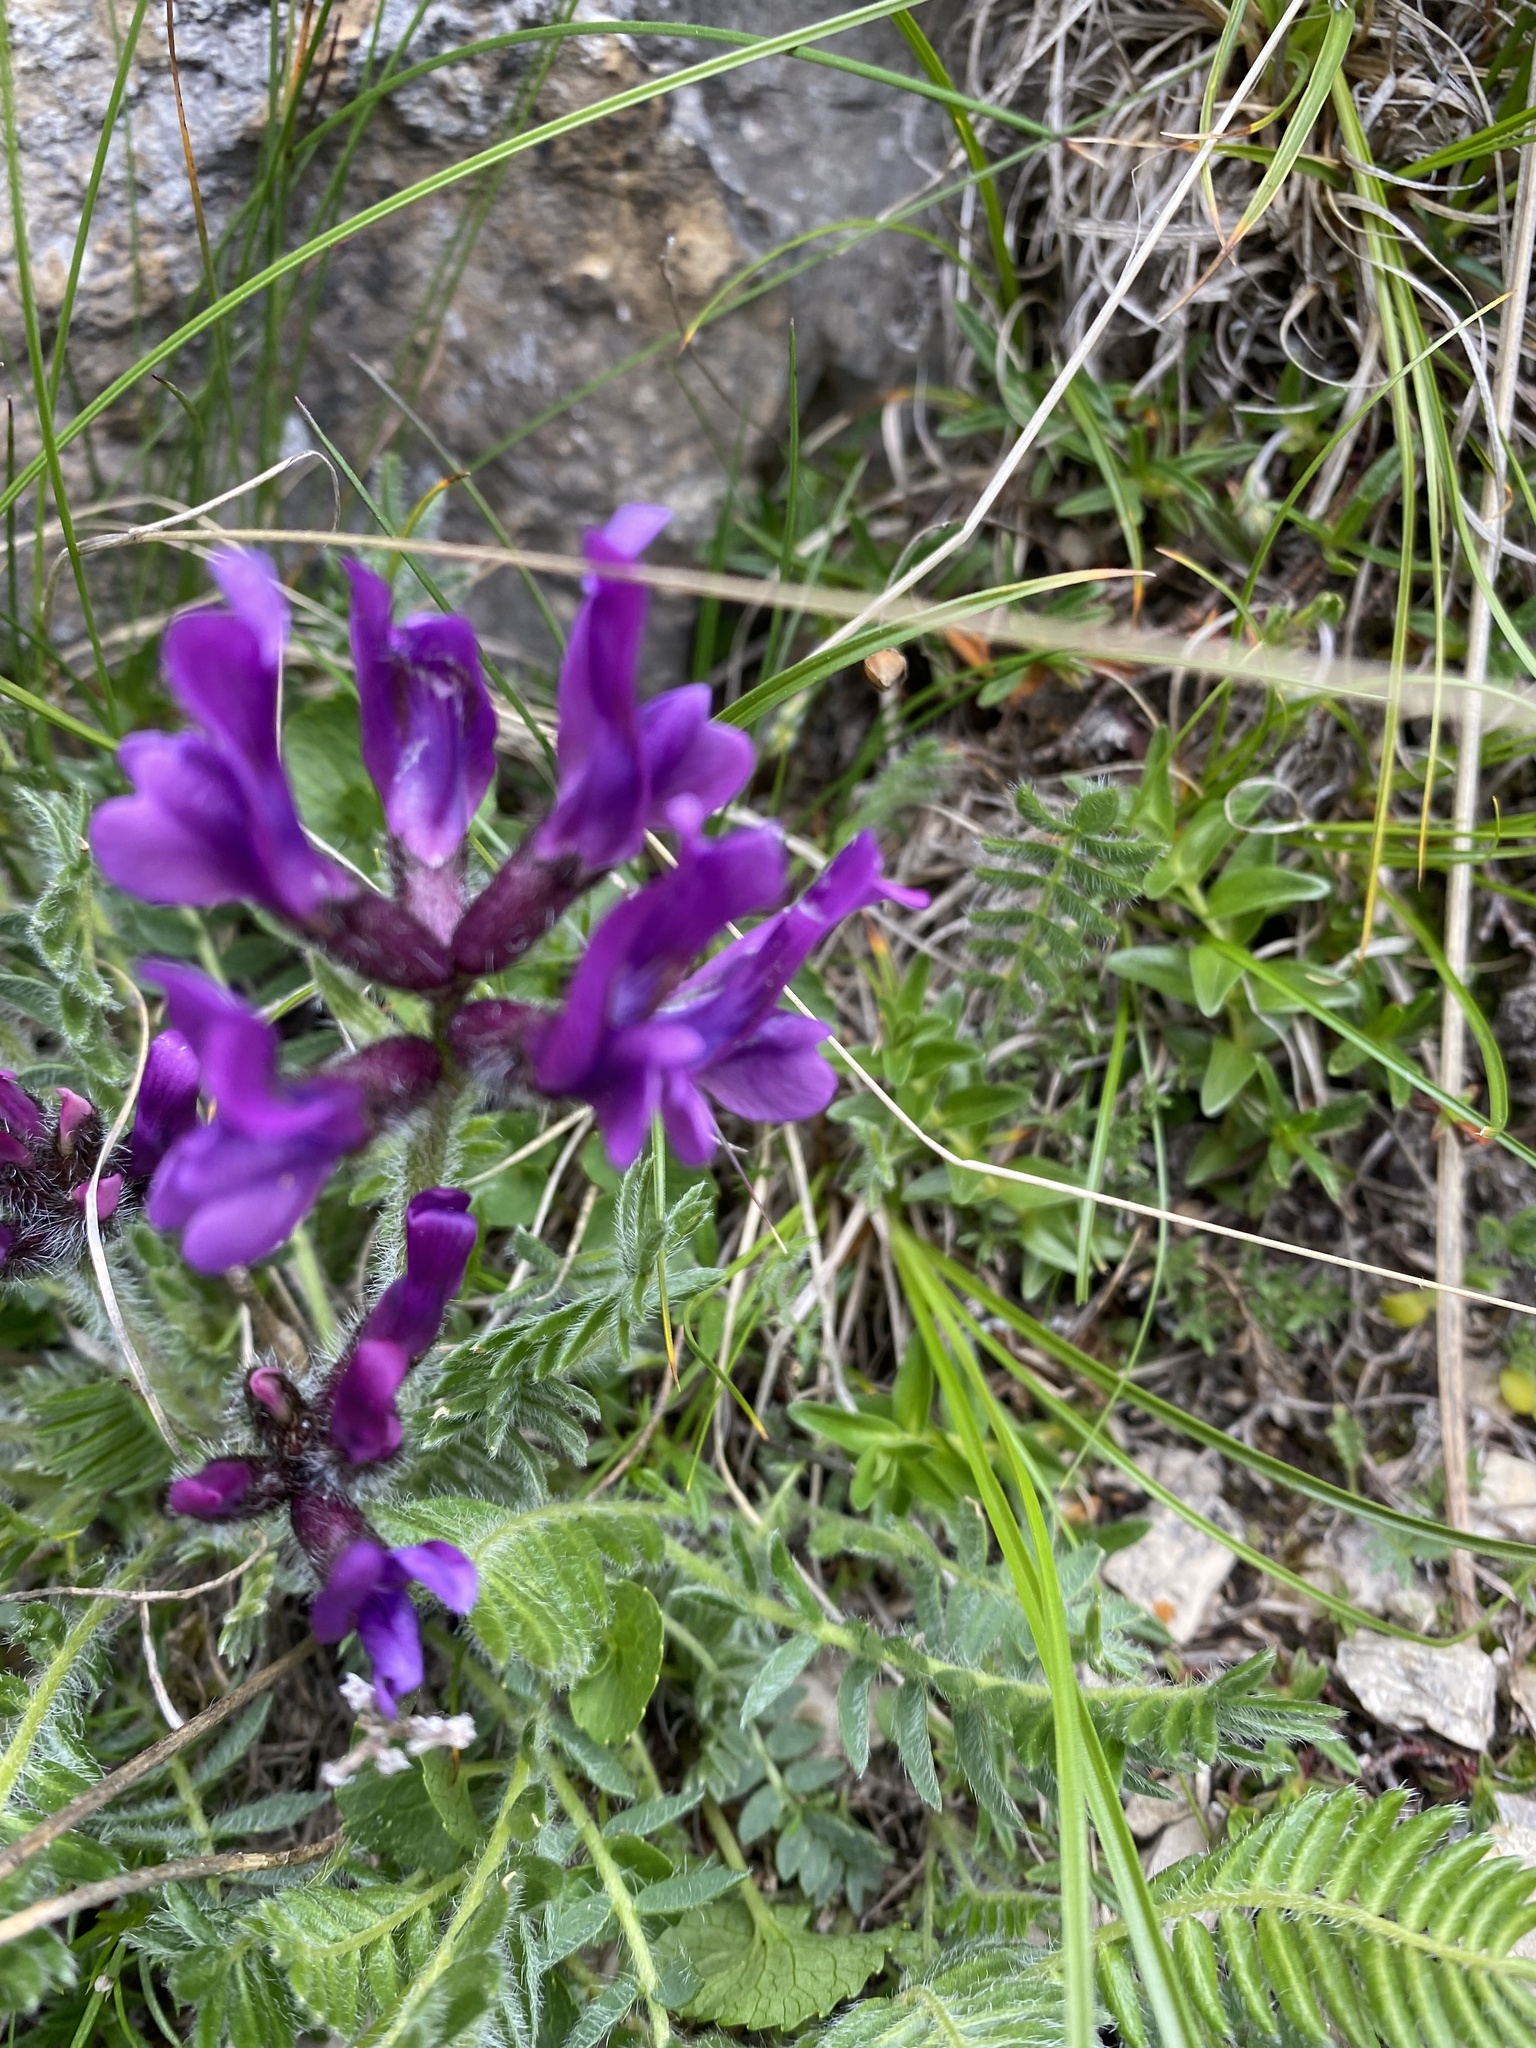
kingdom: Plantae
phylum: Tracheophyta
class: Magnoliopsida
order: Fabales
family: Fabaceae
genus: Oxytropis
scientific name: Oxytropis lazica
